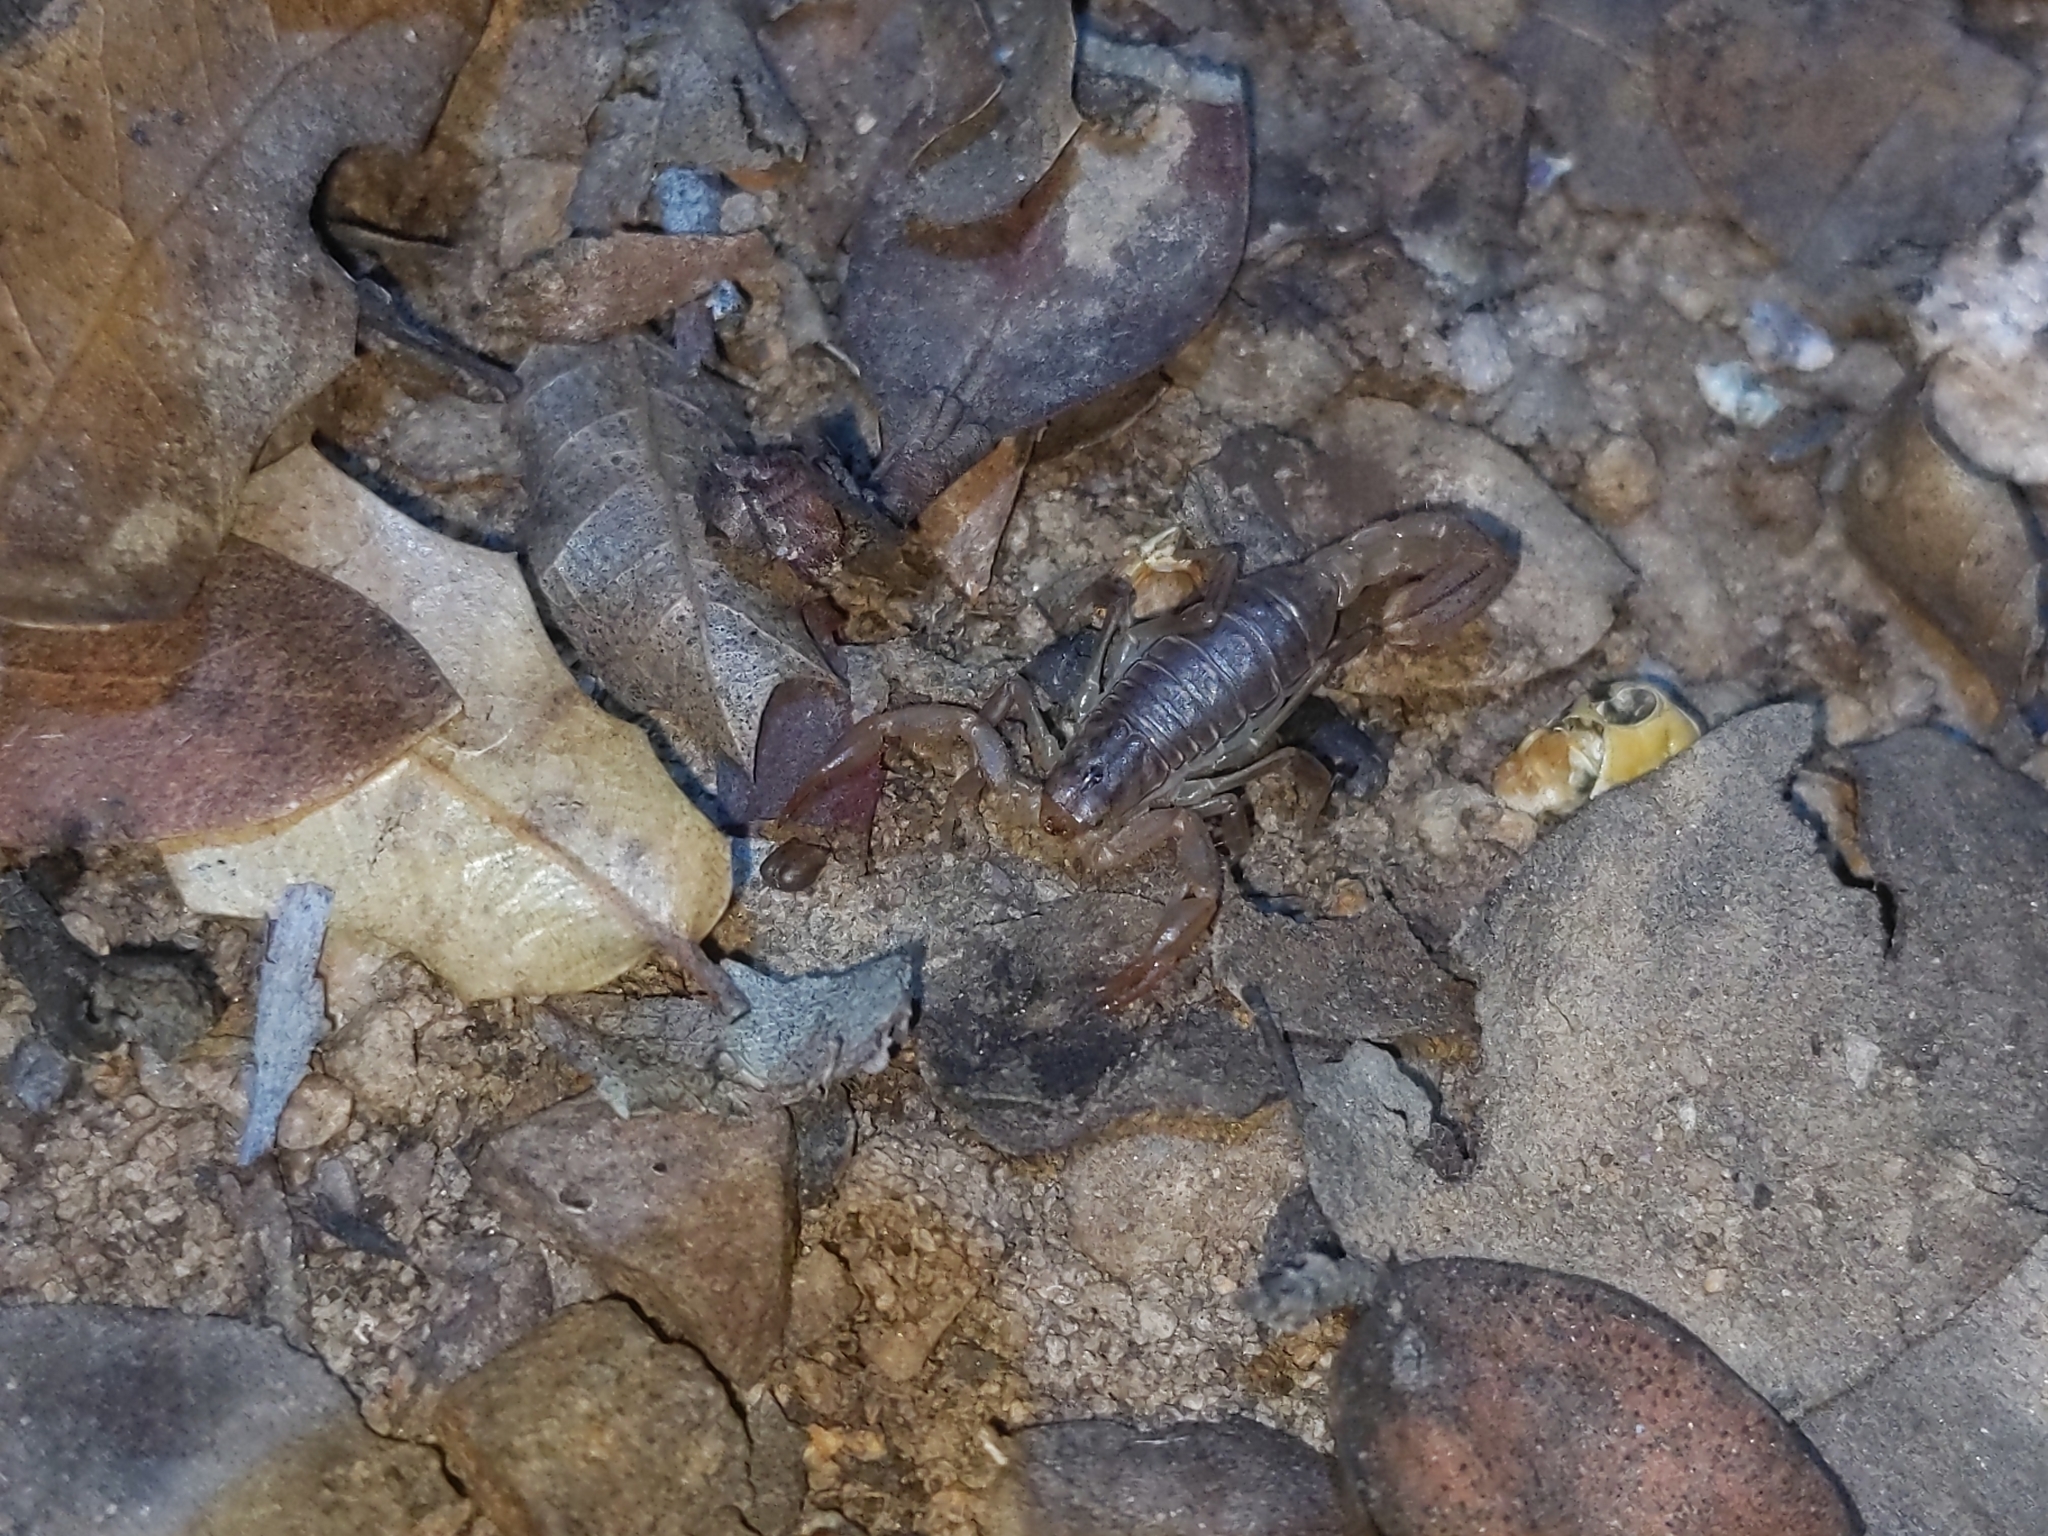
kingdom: Animalia
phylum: Arthropoda
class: Arachnida
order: Scorpiones
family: Vaejovidae
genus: Paravaejovis
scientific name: Paravaejovis spinigerus
